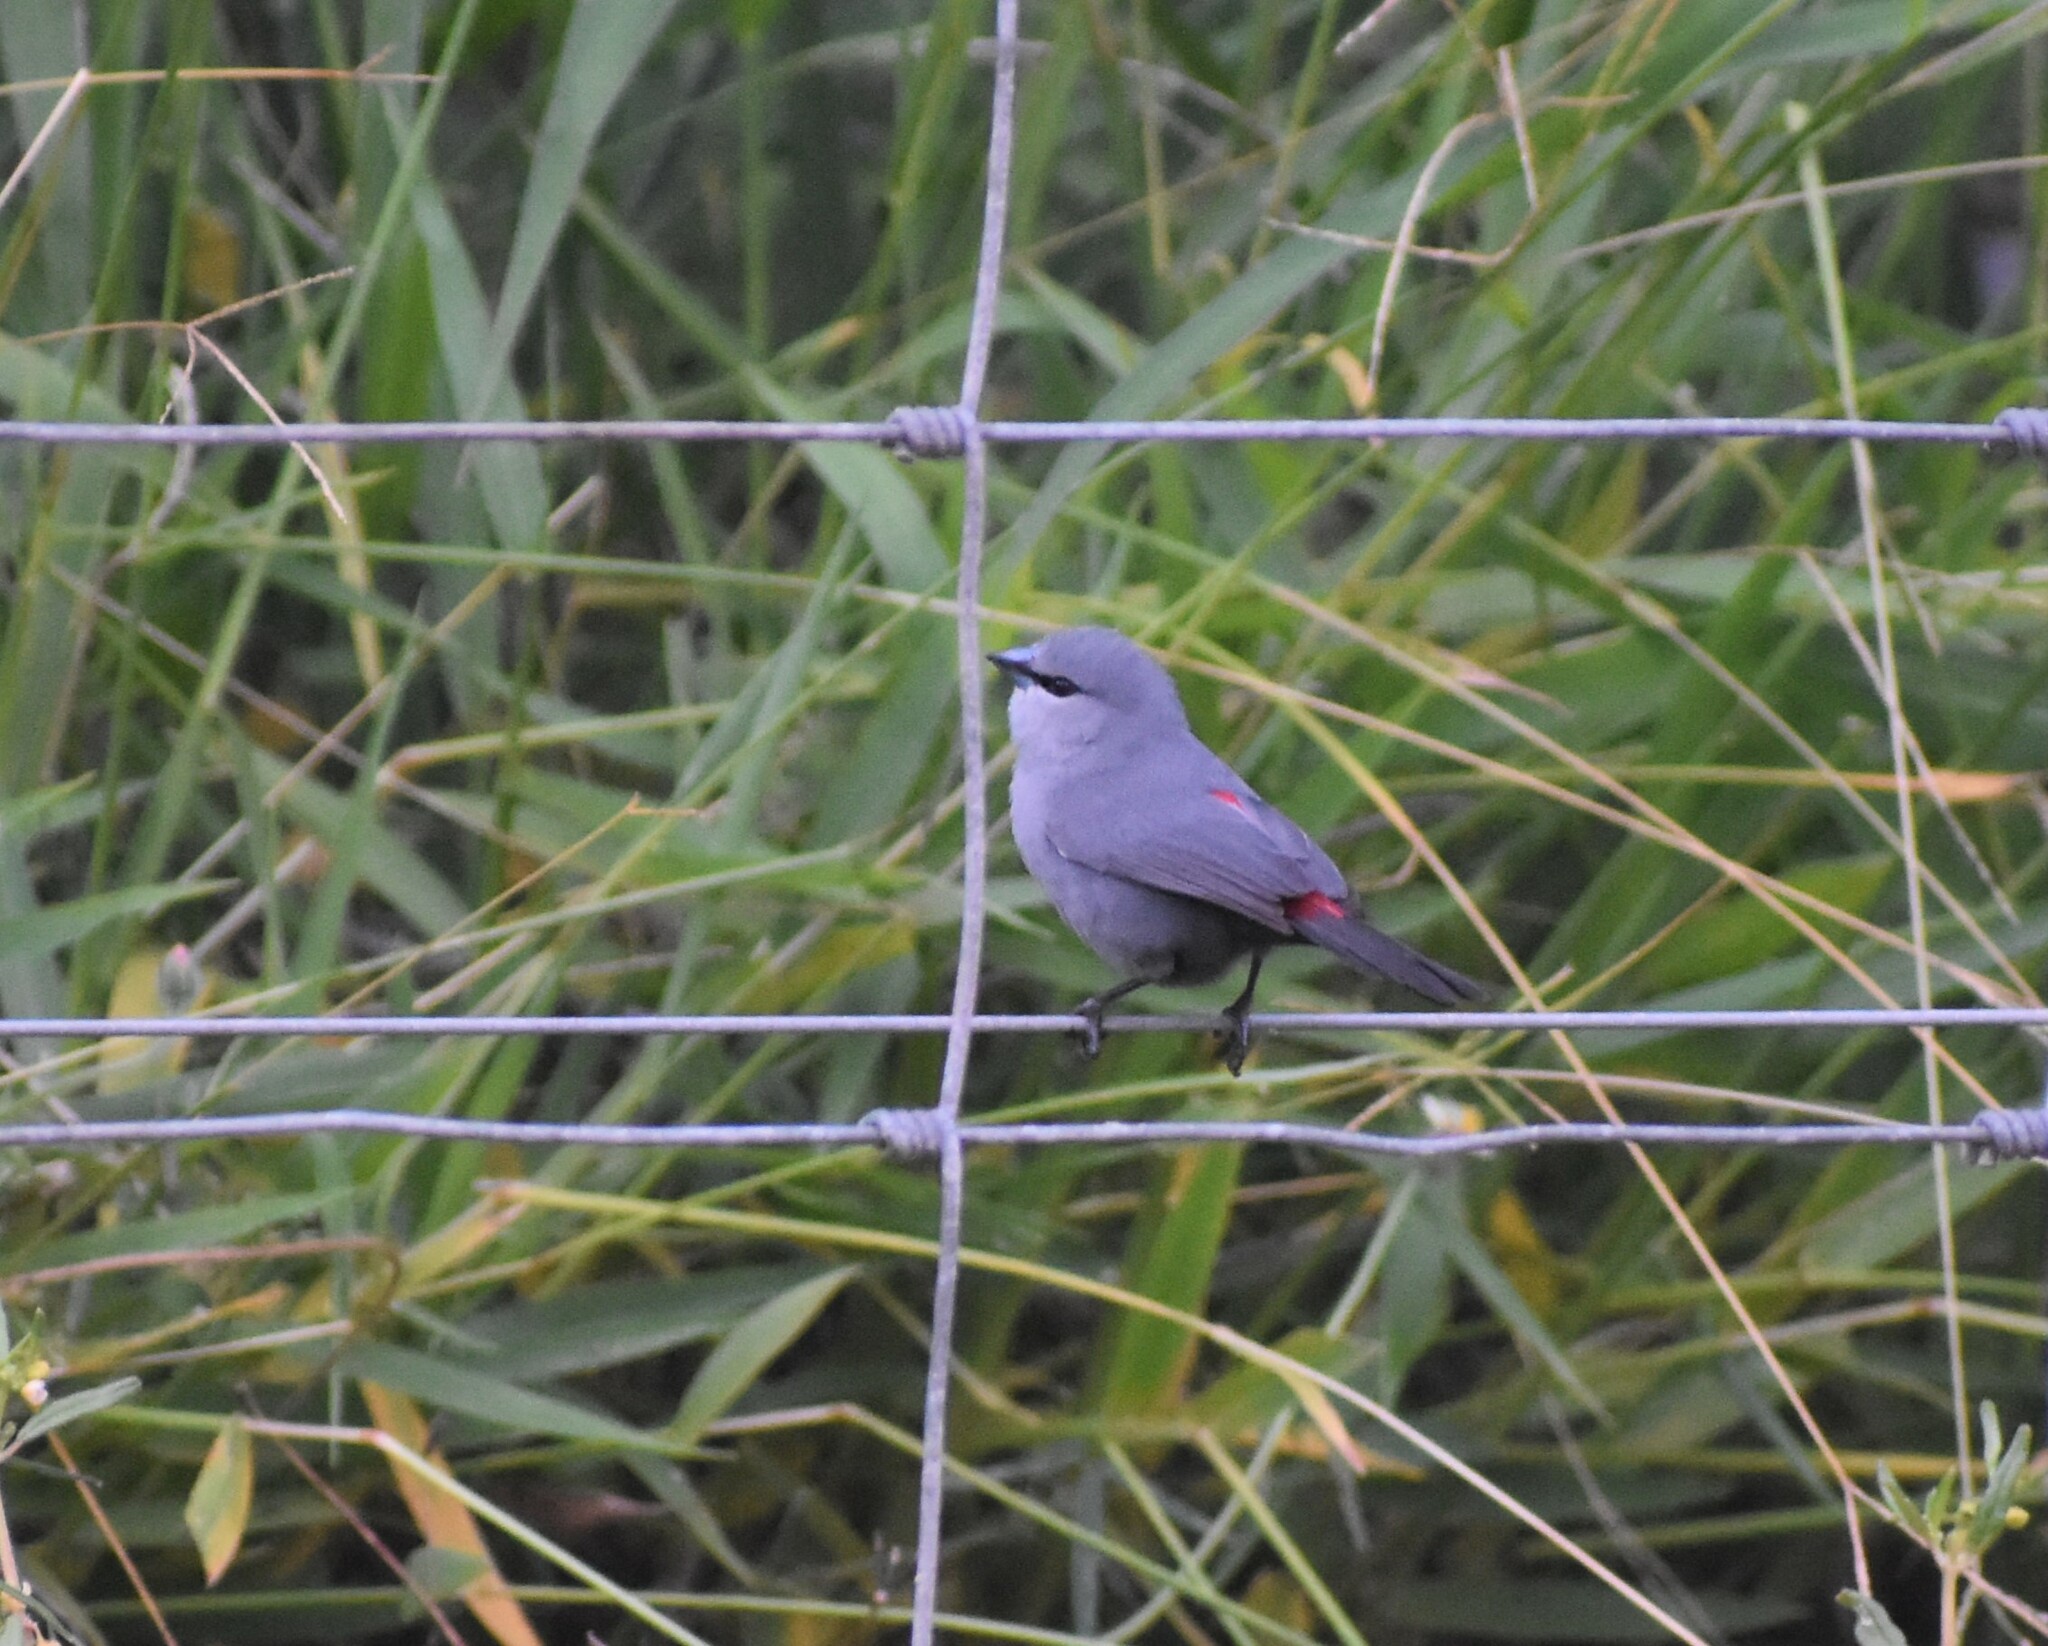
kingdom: Animalia
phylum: Chordata
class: Aves
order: Passeriformes
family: Estrildidae
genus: Estrilda
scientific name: Estrilda perreini
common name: Grey waxbill
